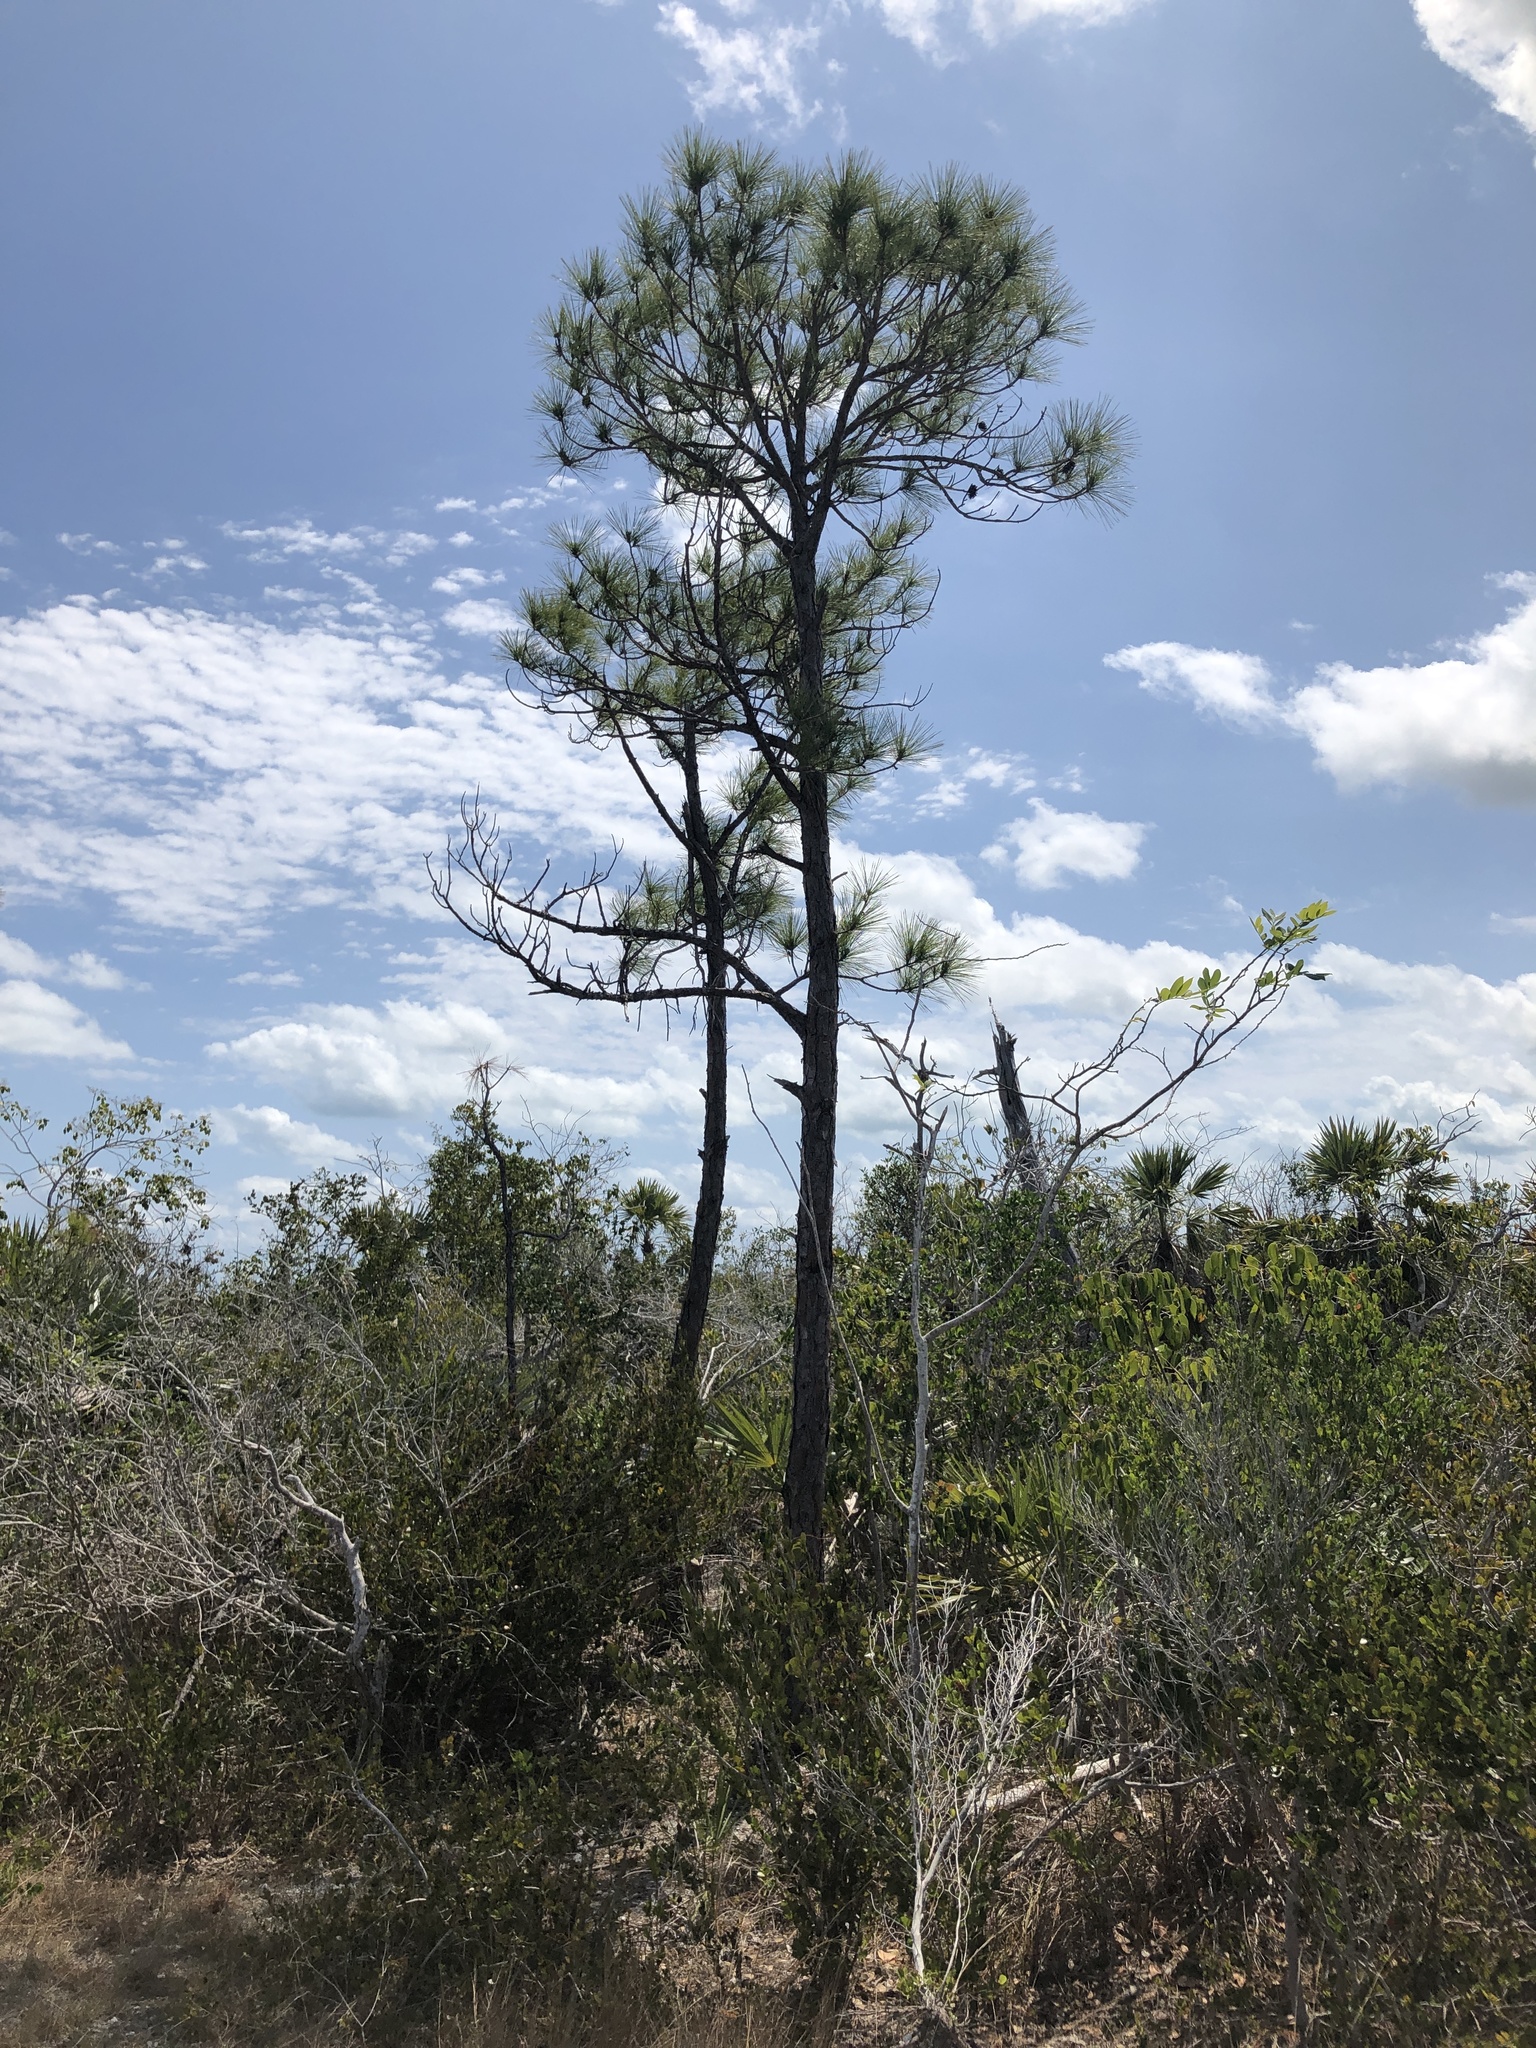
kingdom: Plantae
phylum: Tracheophyta
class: Pinopsida
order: Pinales
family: Pinaceae
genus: Pinus
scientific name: Pinus elliottii
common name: Slash pine
